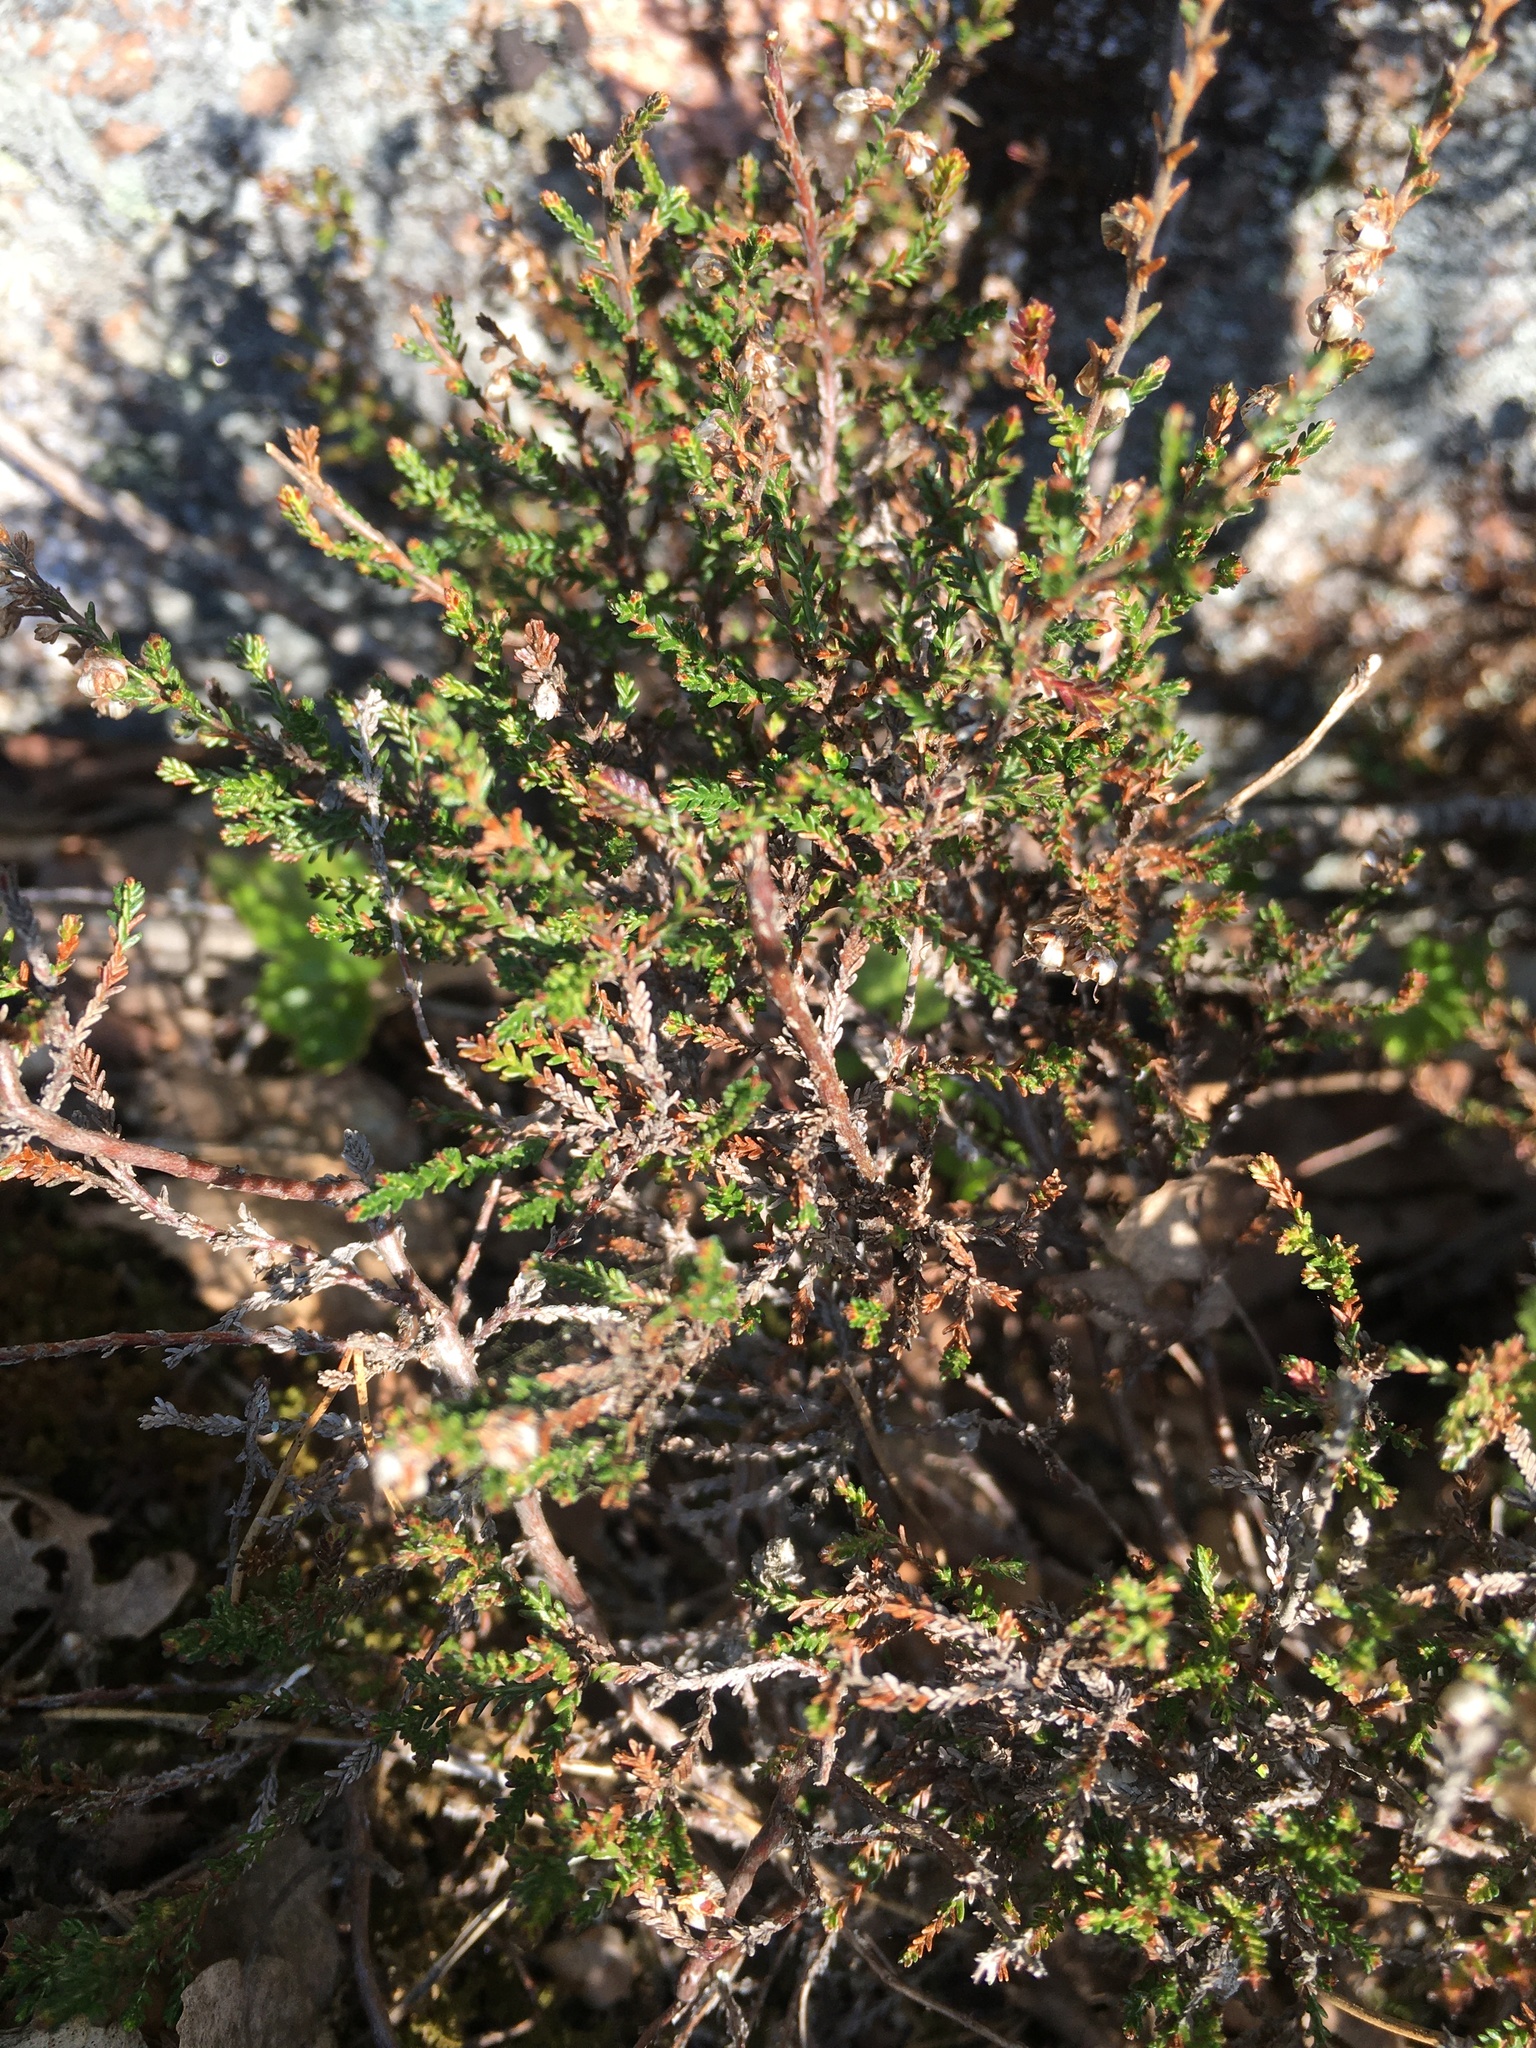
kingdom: Plantae
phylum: Tracheophyta
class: Magnoliopsida
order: Ericales
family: Ericaceae
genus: Calluna
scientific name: Calluna vulgaris
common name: Heather
